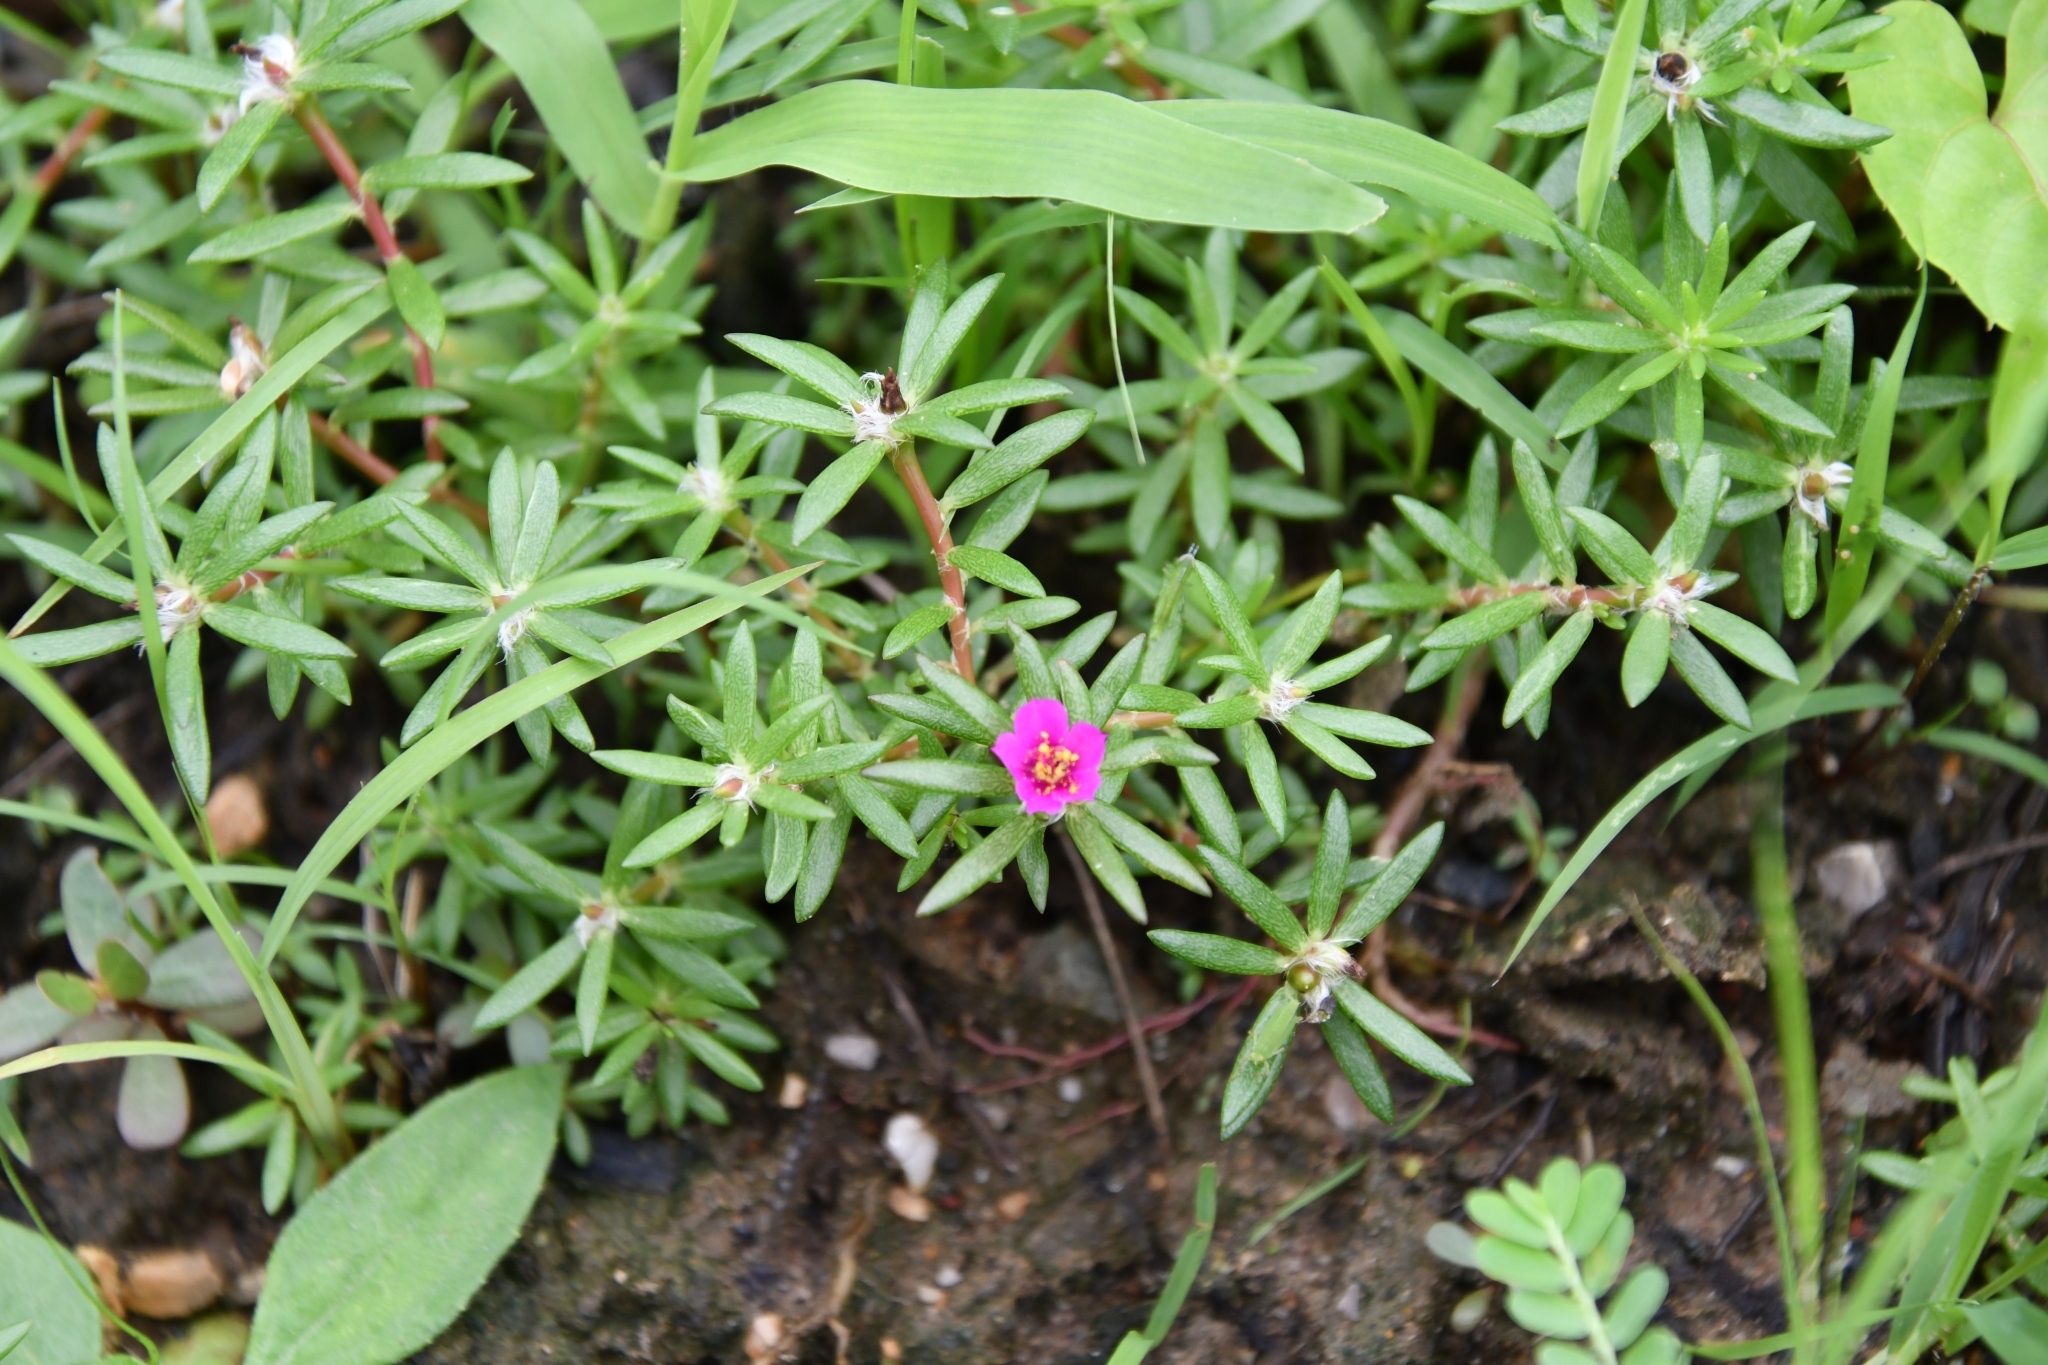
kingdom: Plantae
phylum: Tracheophyta
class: Magnoliopsida
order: Caryophyllales
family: Portulacaceae
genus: Portulaca
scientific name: Portulaca pilosa
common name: Kiss me quick
